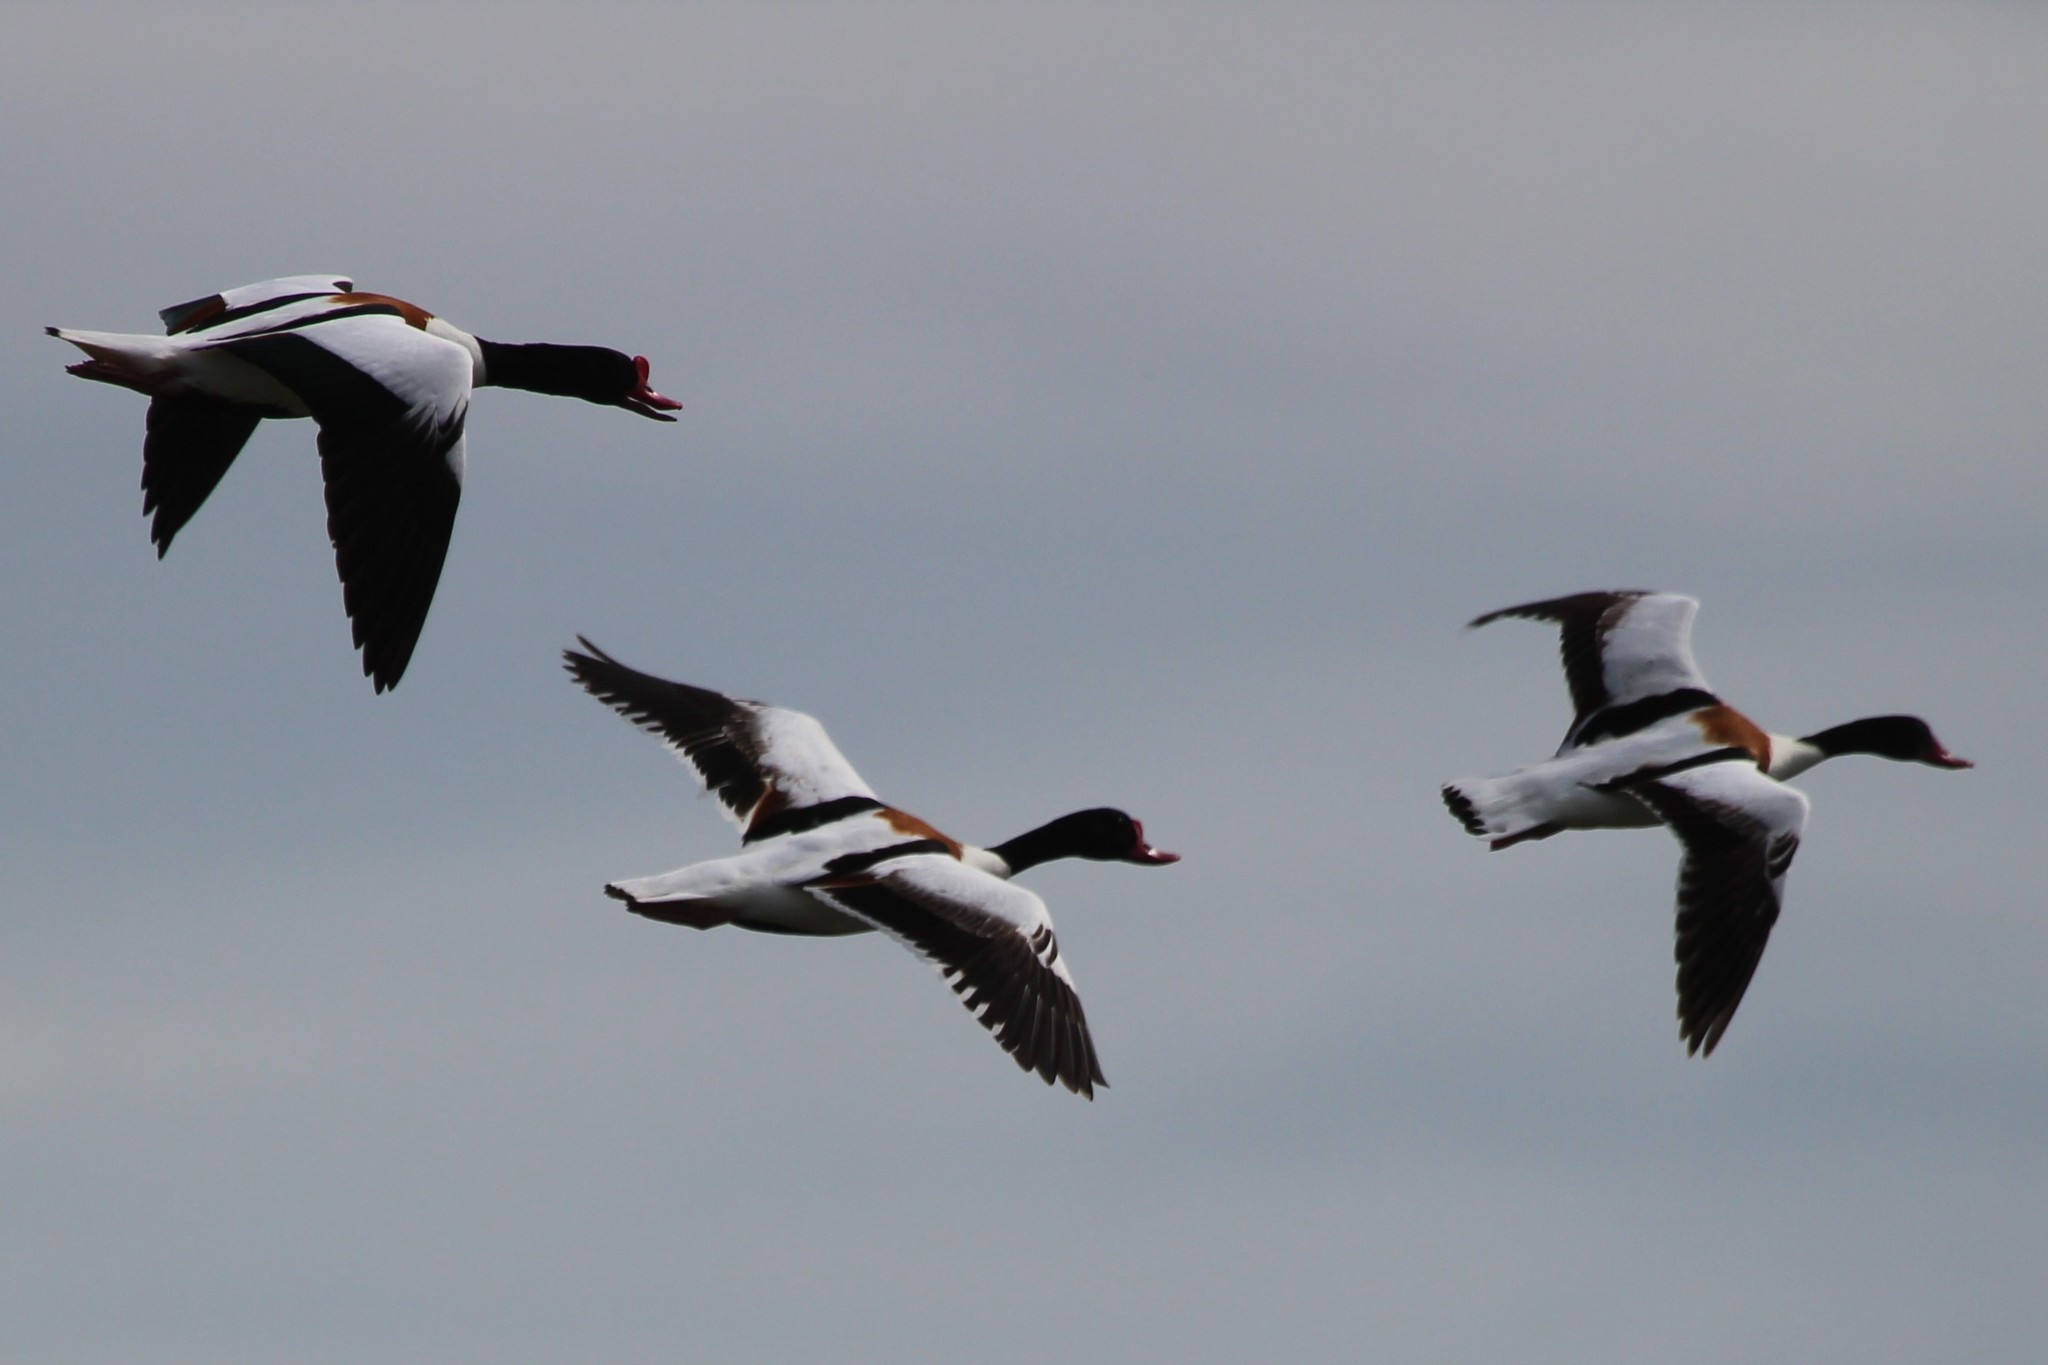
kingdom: Animalia
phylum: Chordata
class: Aves
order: Anseriformes
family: Anatidae
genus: Tadorna
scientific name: Tadorna tadorna
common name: Common shelduck
